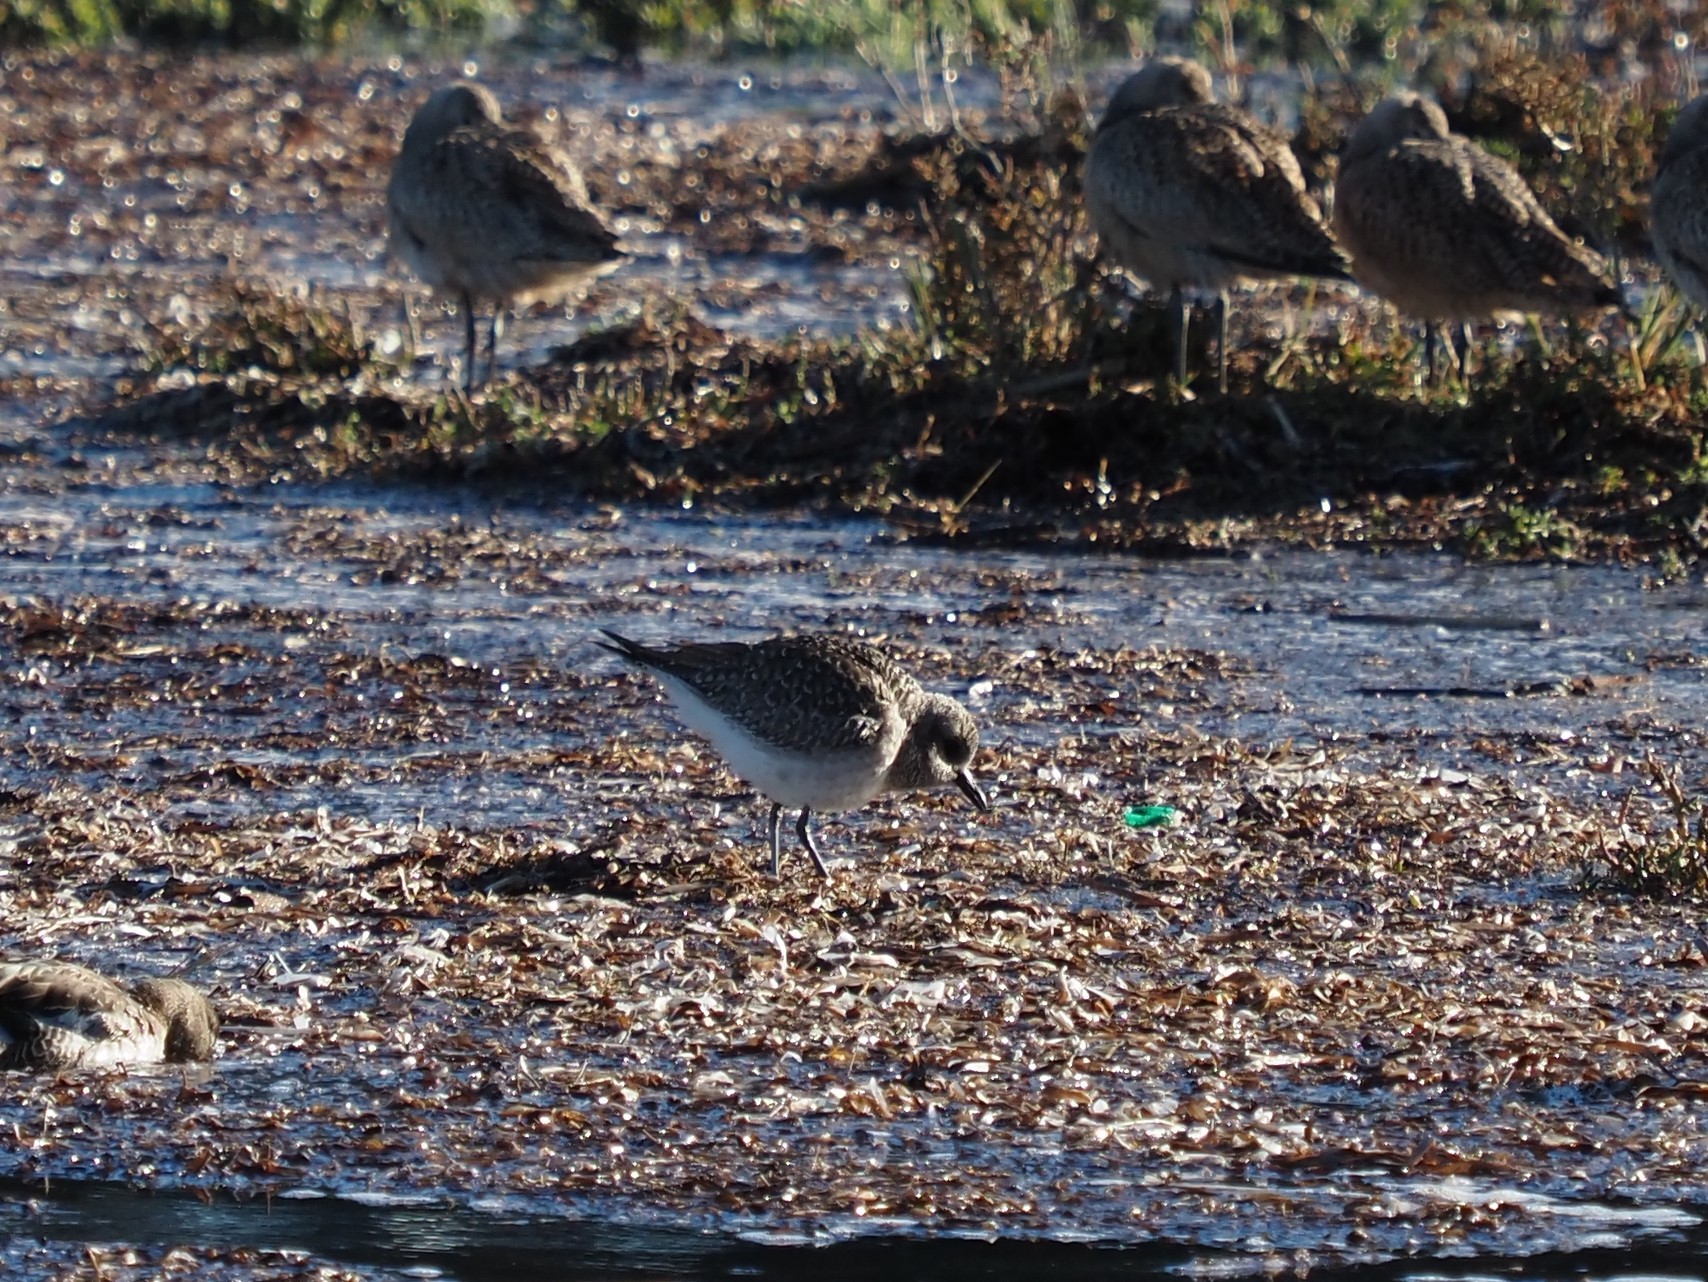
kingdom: Animalia
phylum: Chordata
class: Aves
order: Charadriiformes
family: Charadriidae
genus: Pluvialis
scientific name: Pluvialis squatarola
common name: Grey plover
